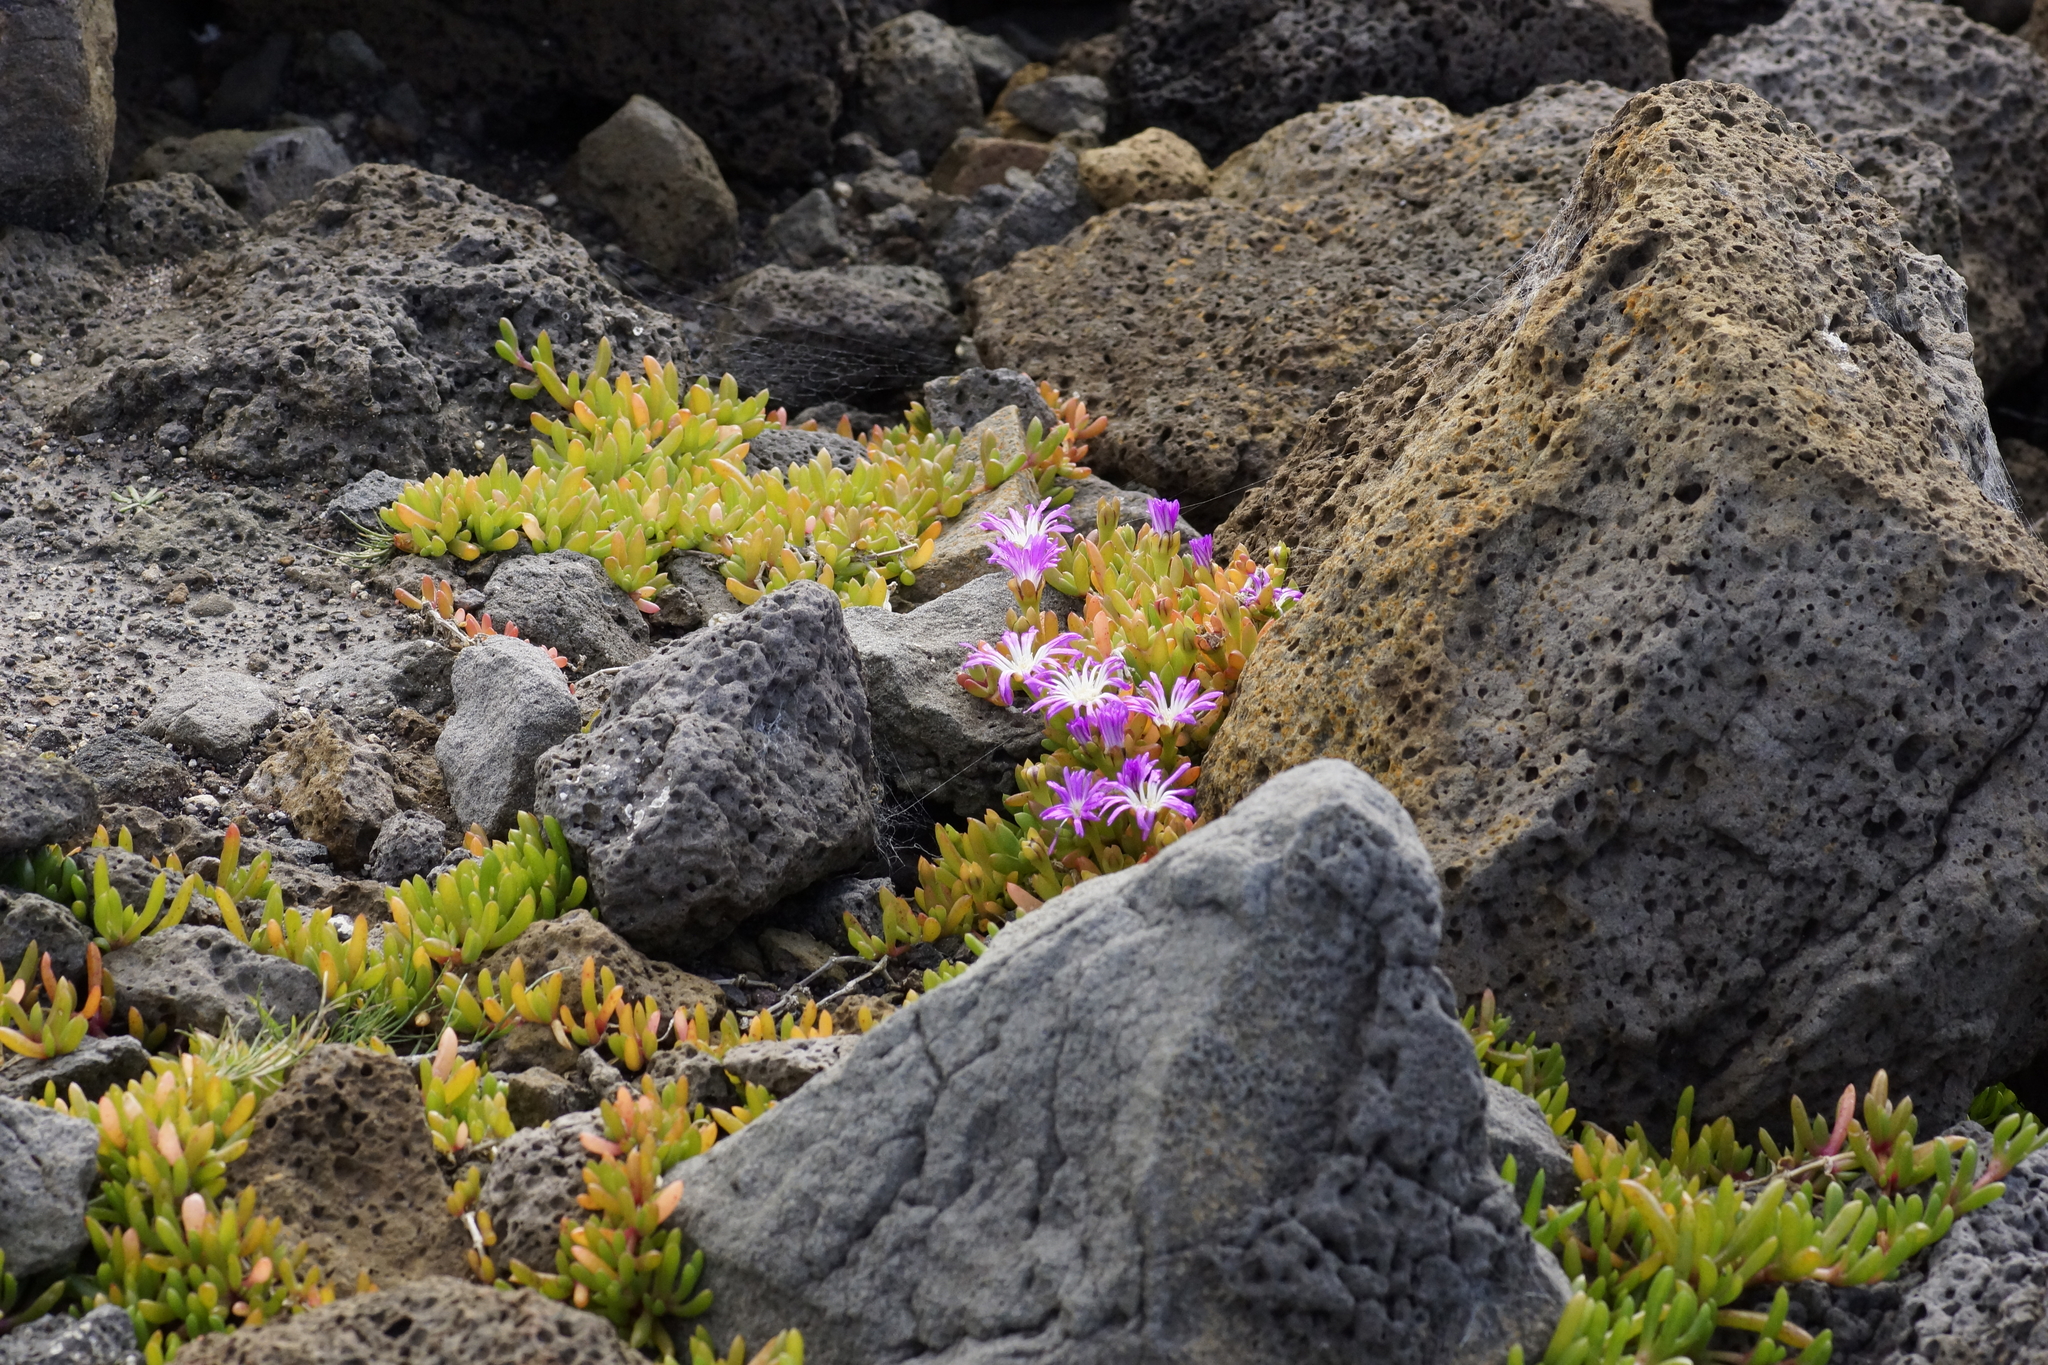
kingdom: Plantae
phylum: Tracheophyta
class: Magnoliopsida
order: Caryophyllales
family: Aizoaceae
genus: Disphyma
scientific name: Disphyma crassifolium
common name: Purple dewplant
